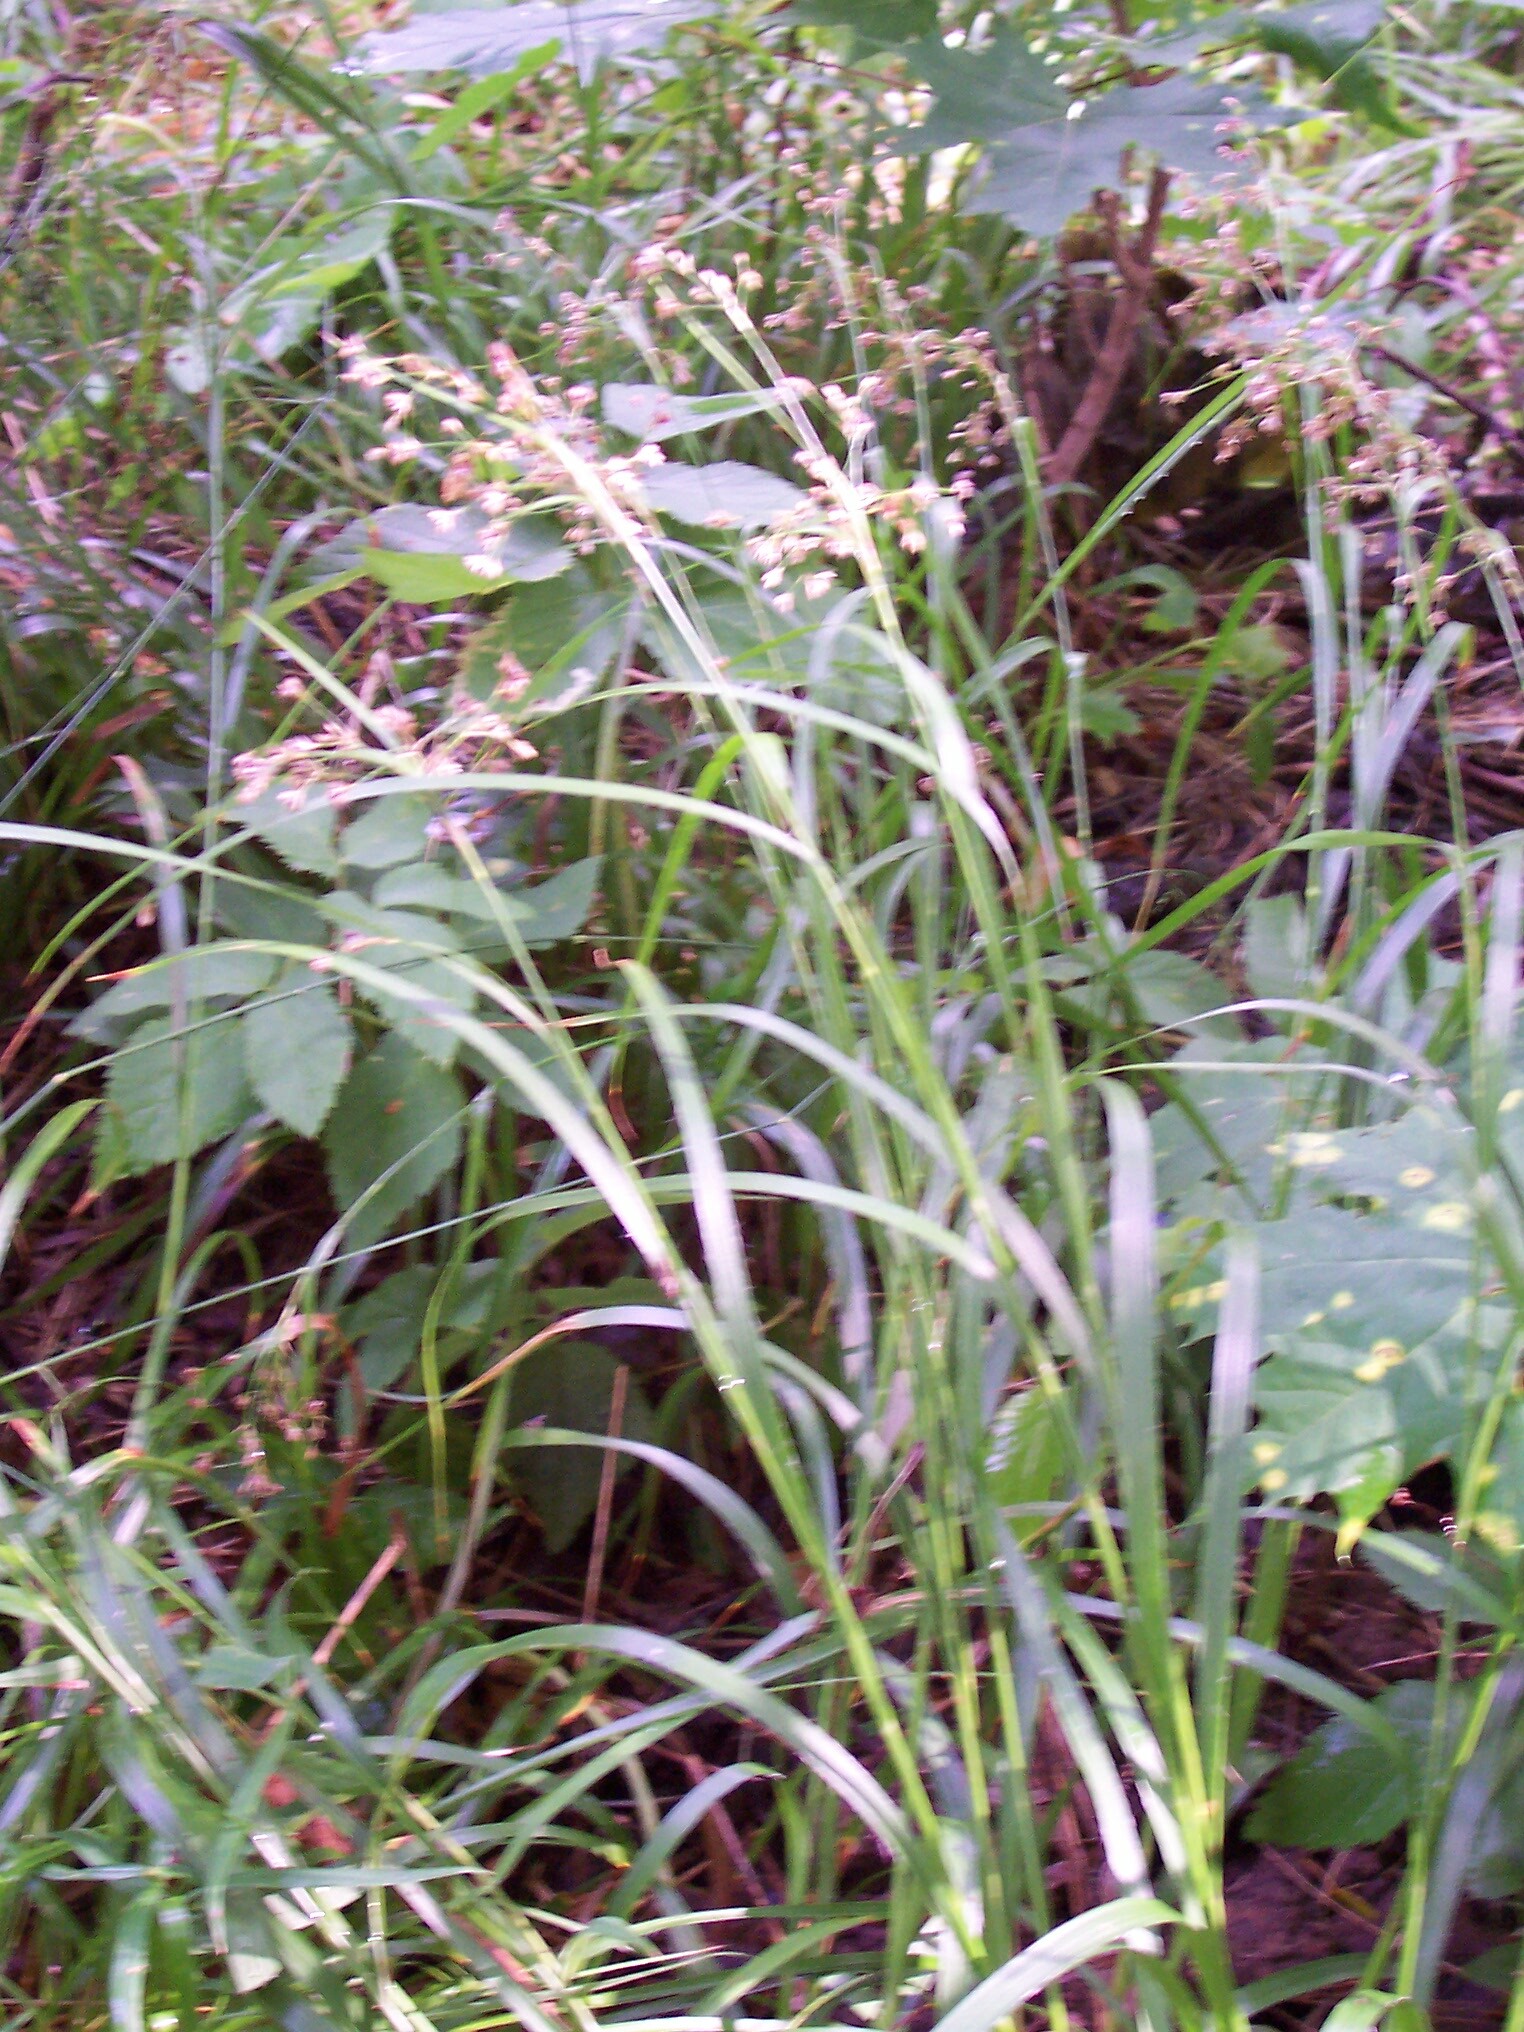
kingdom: Plantae
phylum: Tracheophyta
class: Liliopsida
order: Poales
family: Juncaceae
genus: Luzula
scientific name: Luzula luzuloides
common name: White wood-rush
